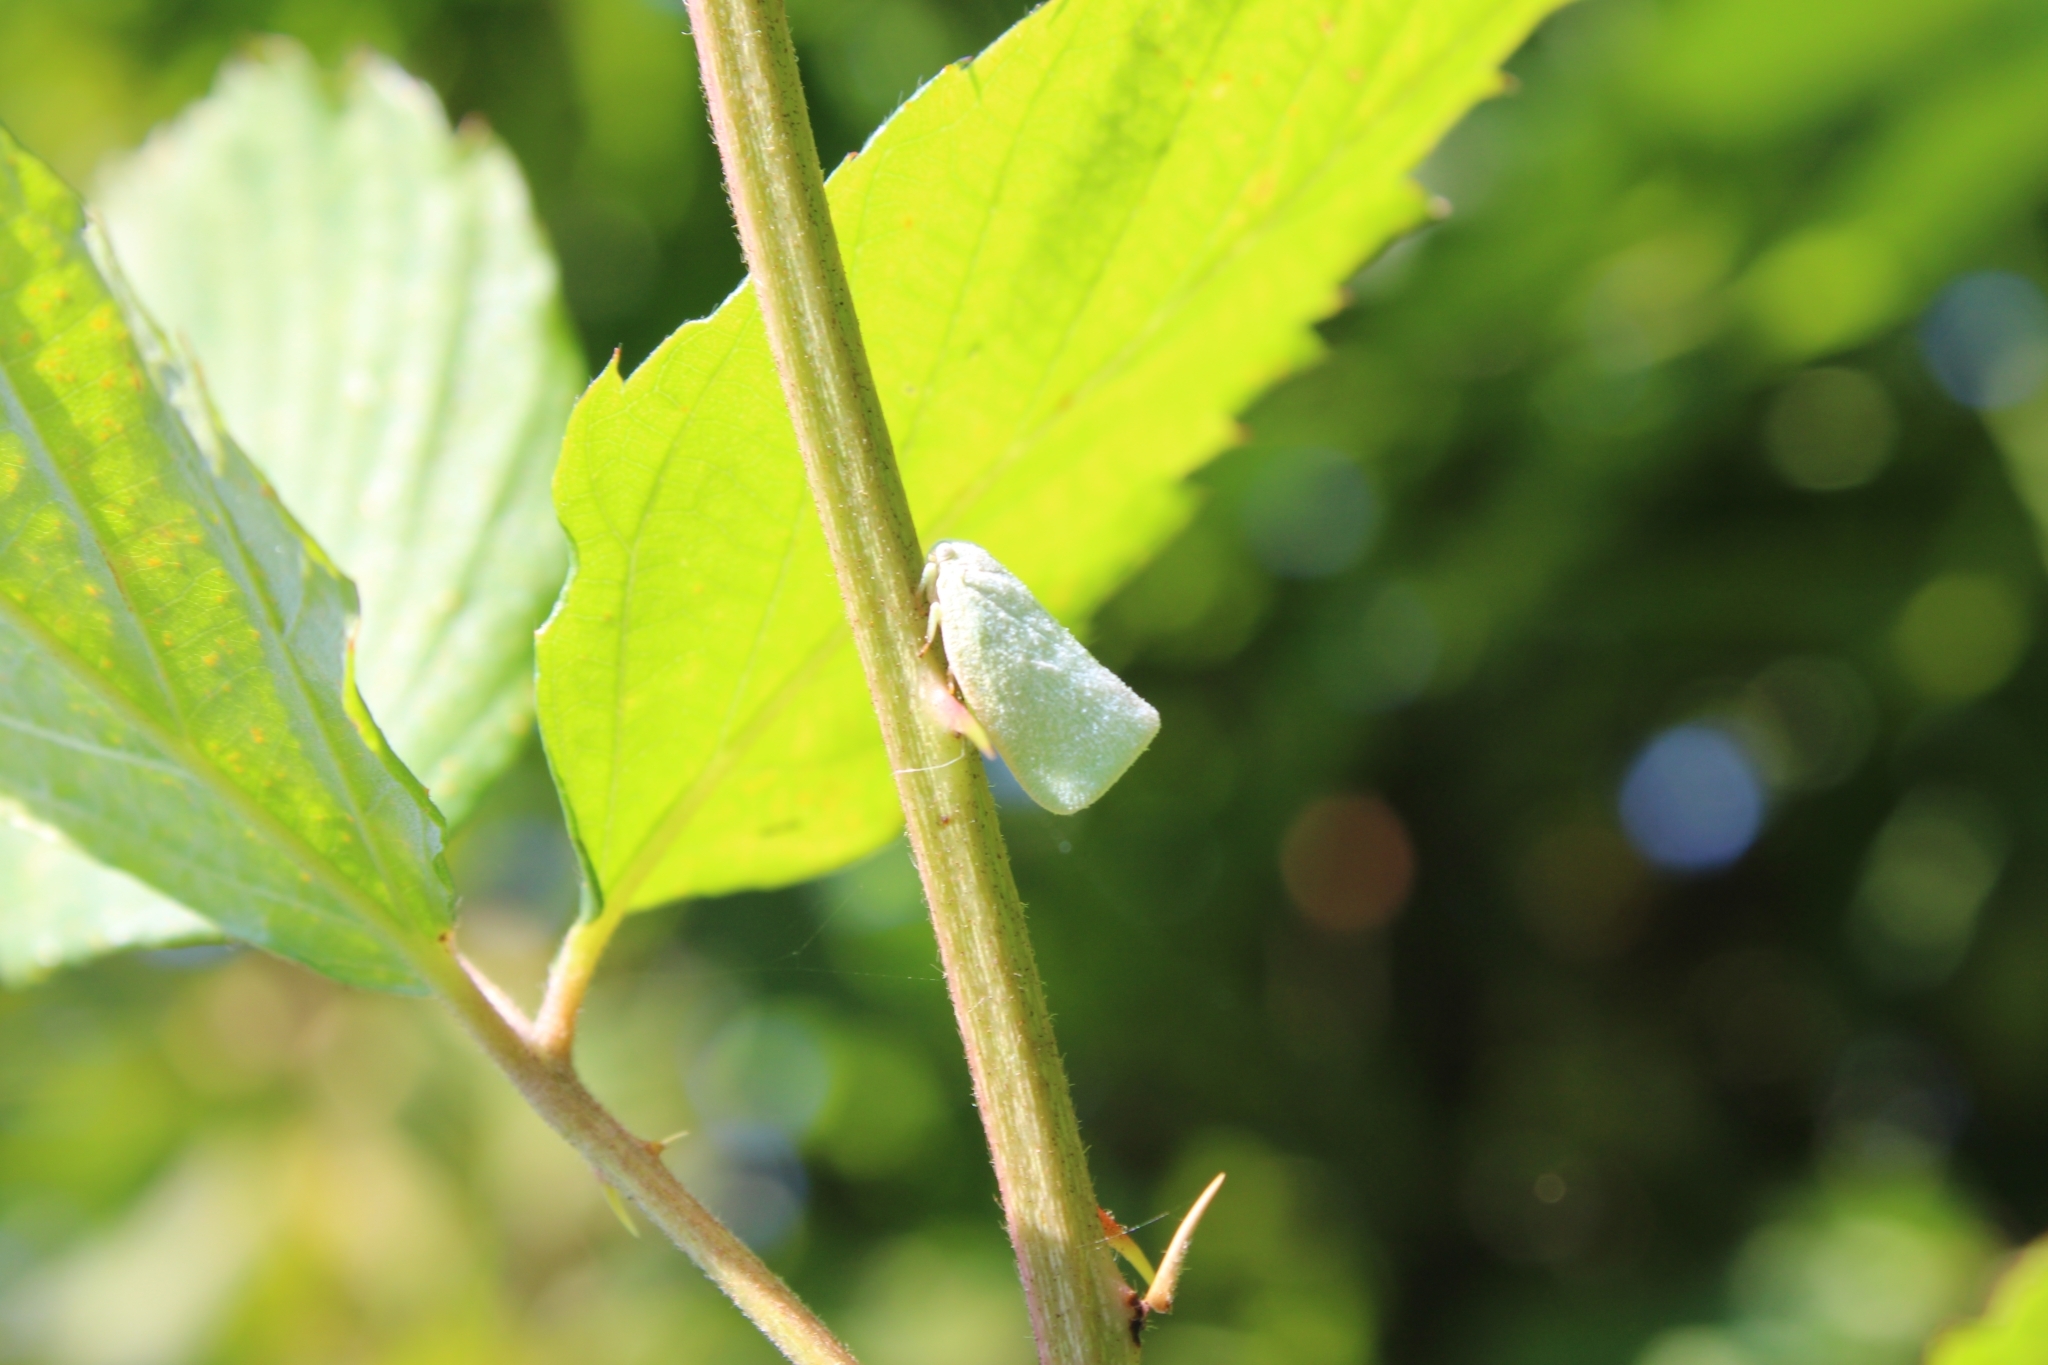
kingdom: Animalia
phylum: Arthropoda
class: Insecta
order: Hemiptera
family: Flatidae
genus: Flatormenis
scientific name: Flatormenis proxima
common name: Northern flatid planthopper
